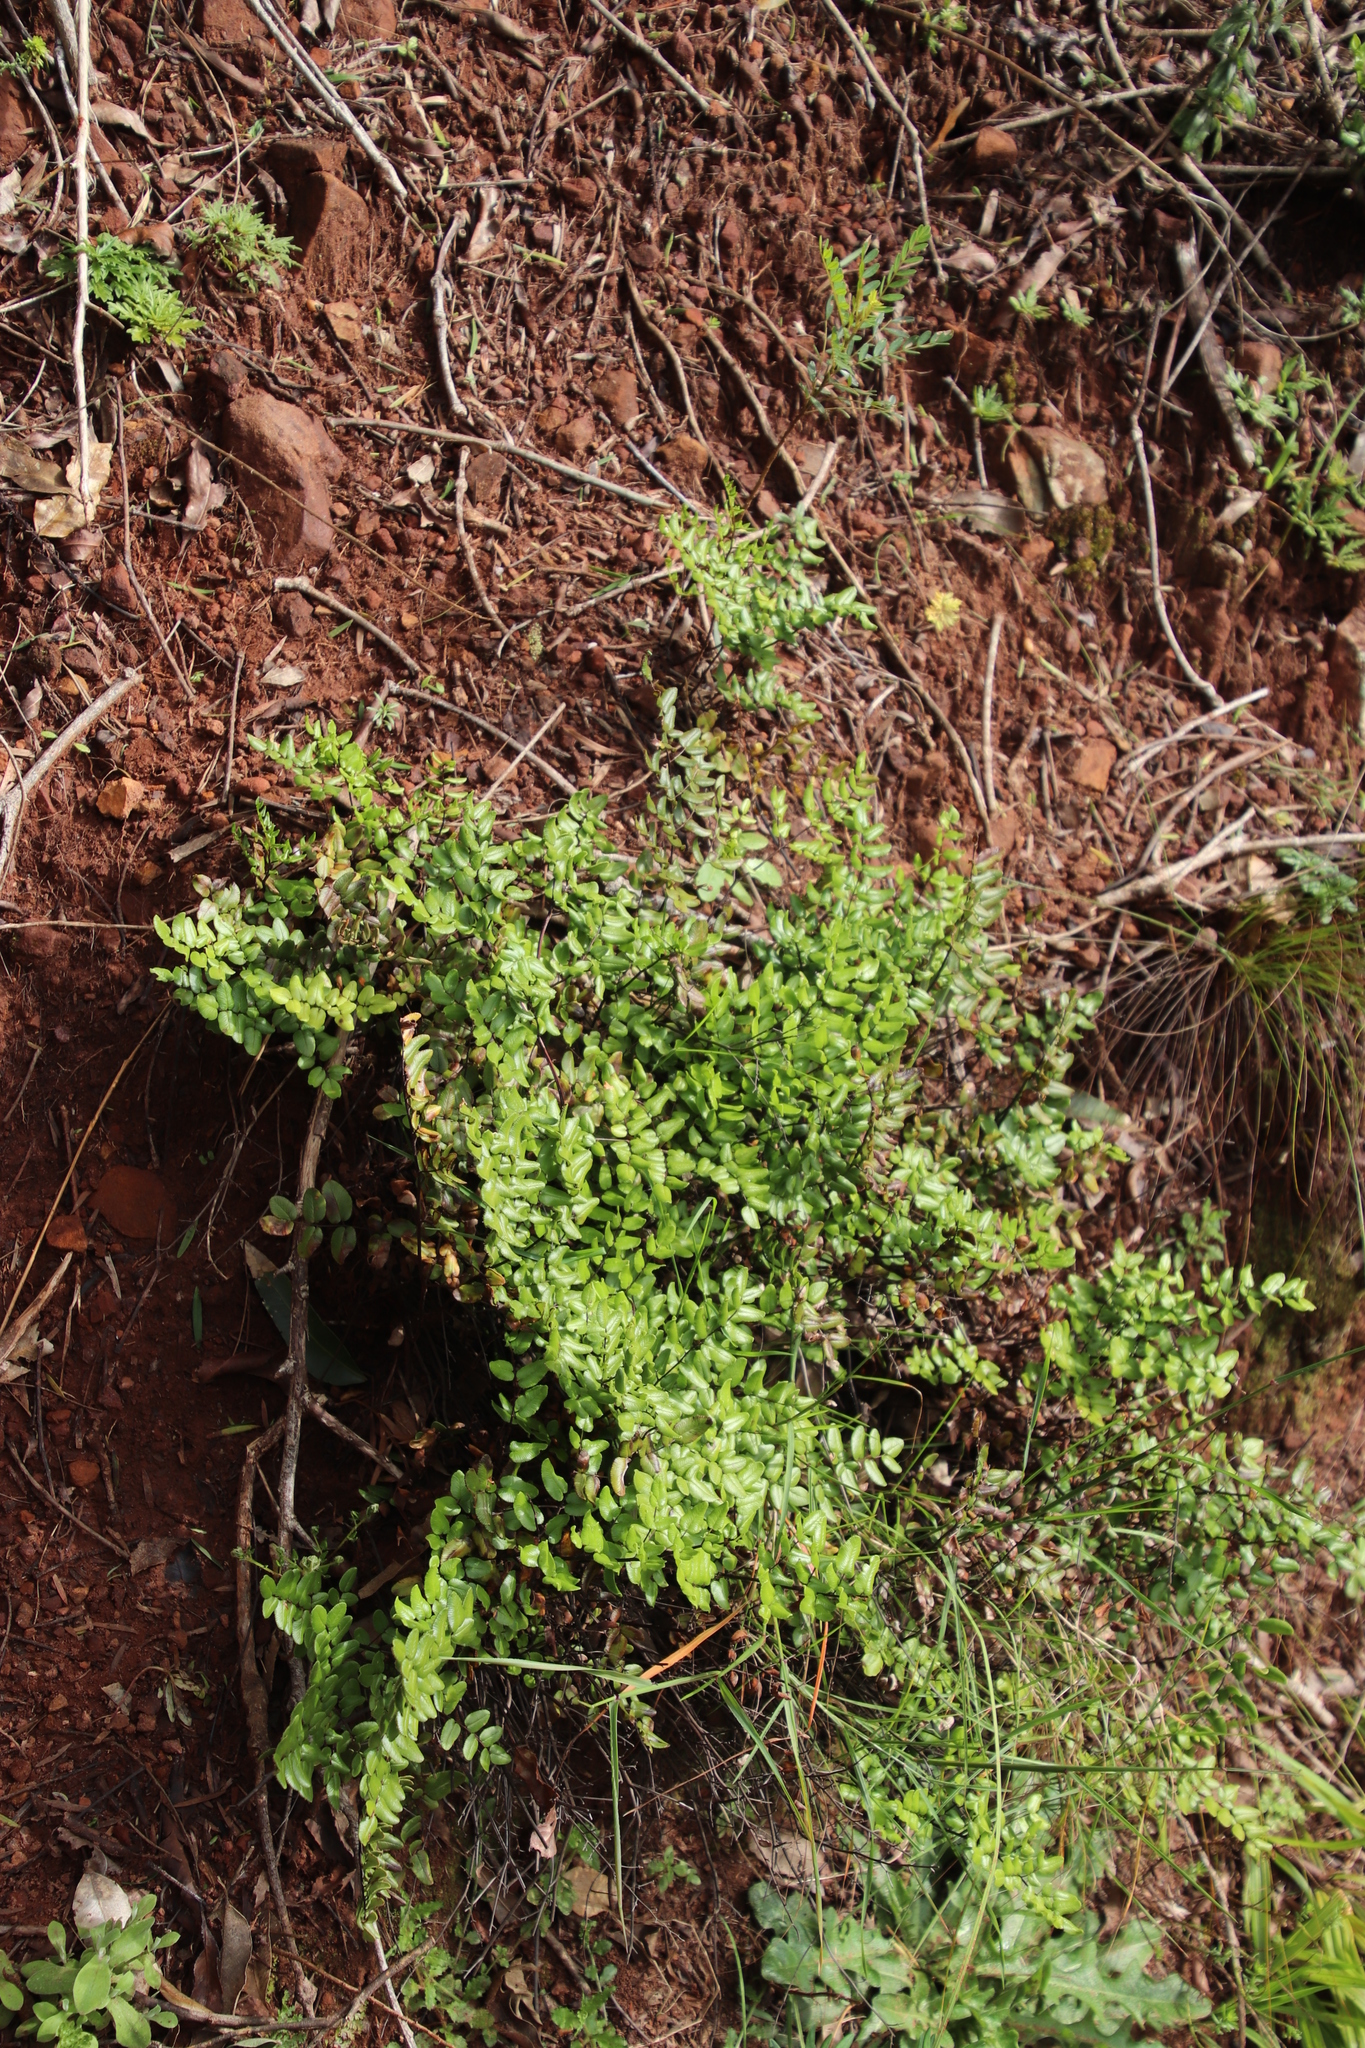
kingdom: Plantae
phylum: Tracheophyta
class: Polypodiopsida
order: Polypodiales
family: Pteridaceae
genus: Pellaea
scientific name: Pellaea pteroides
